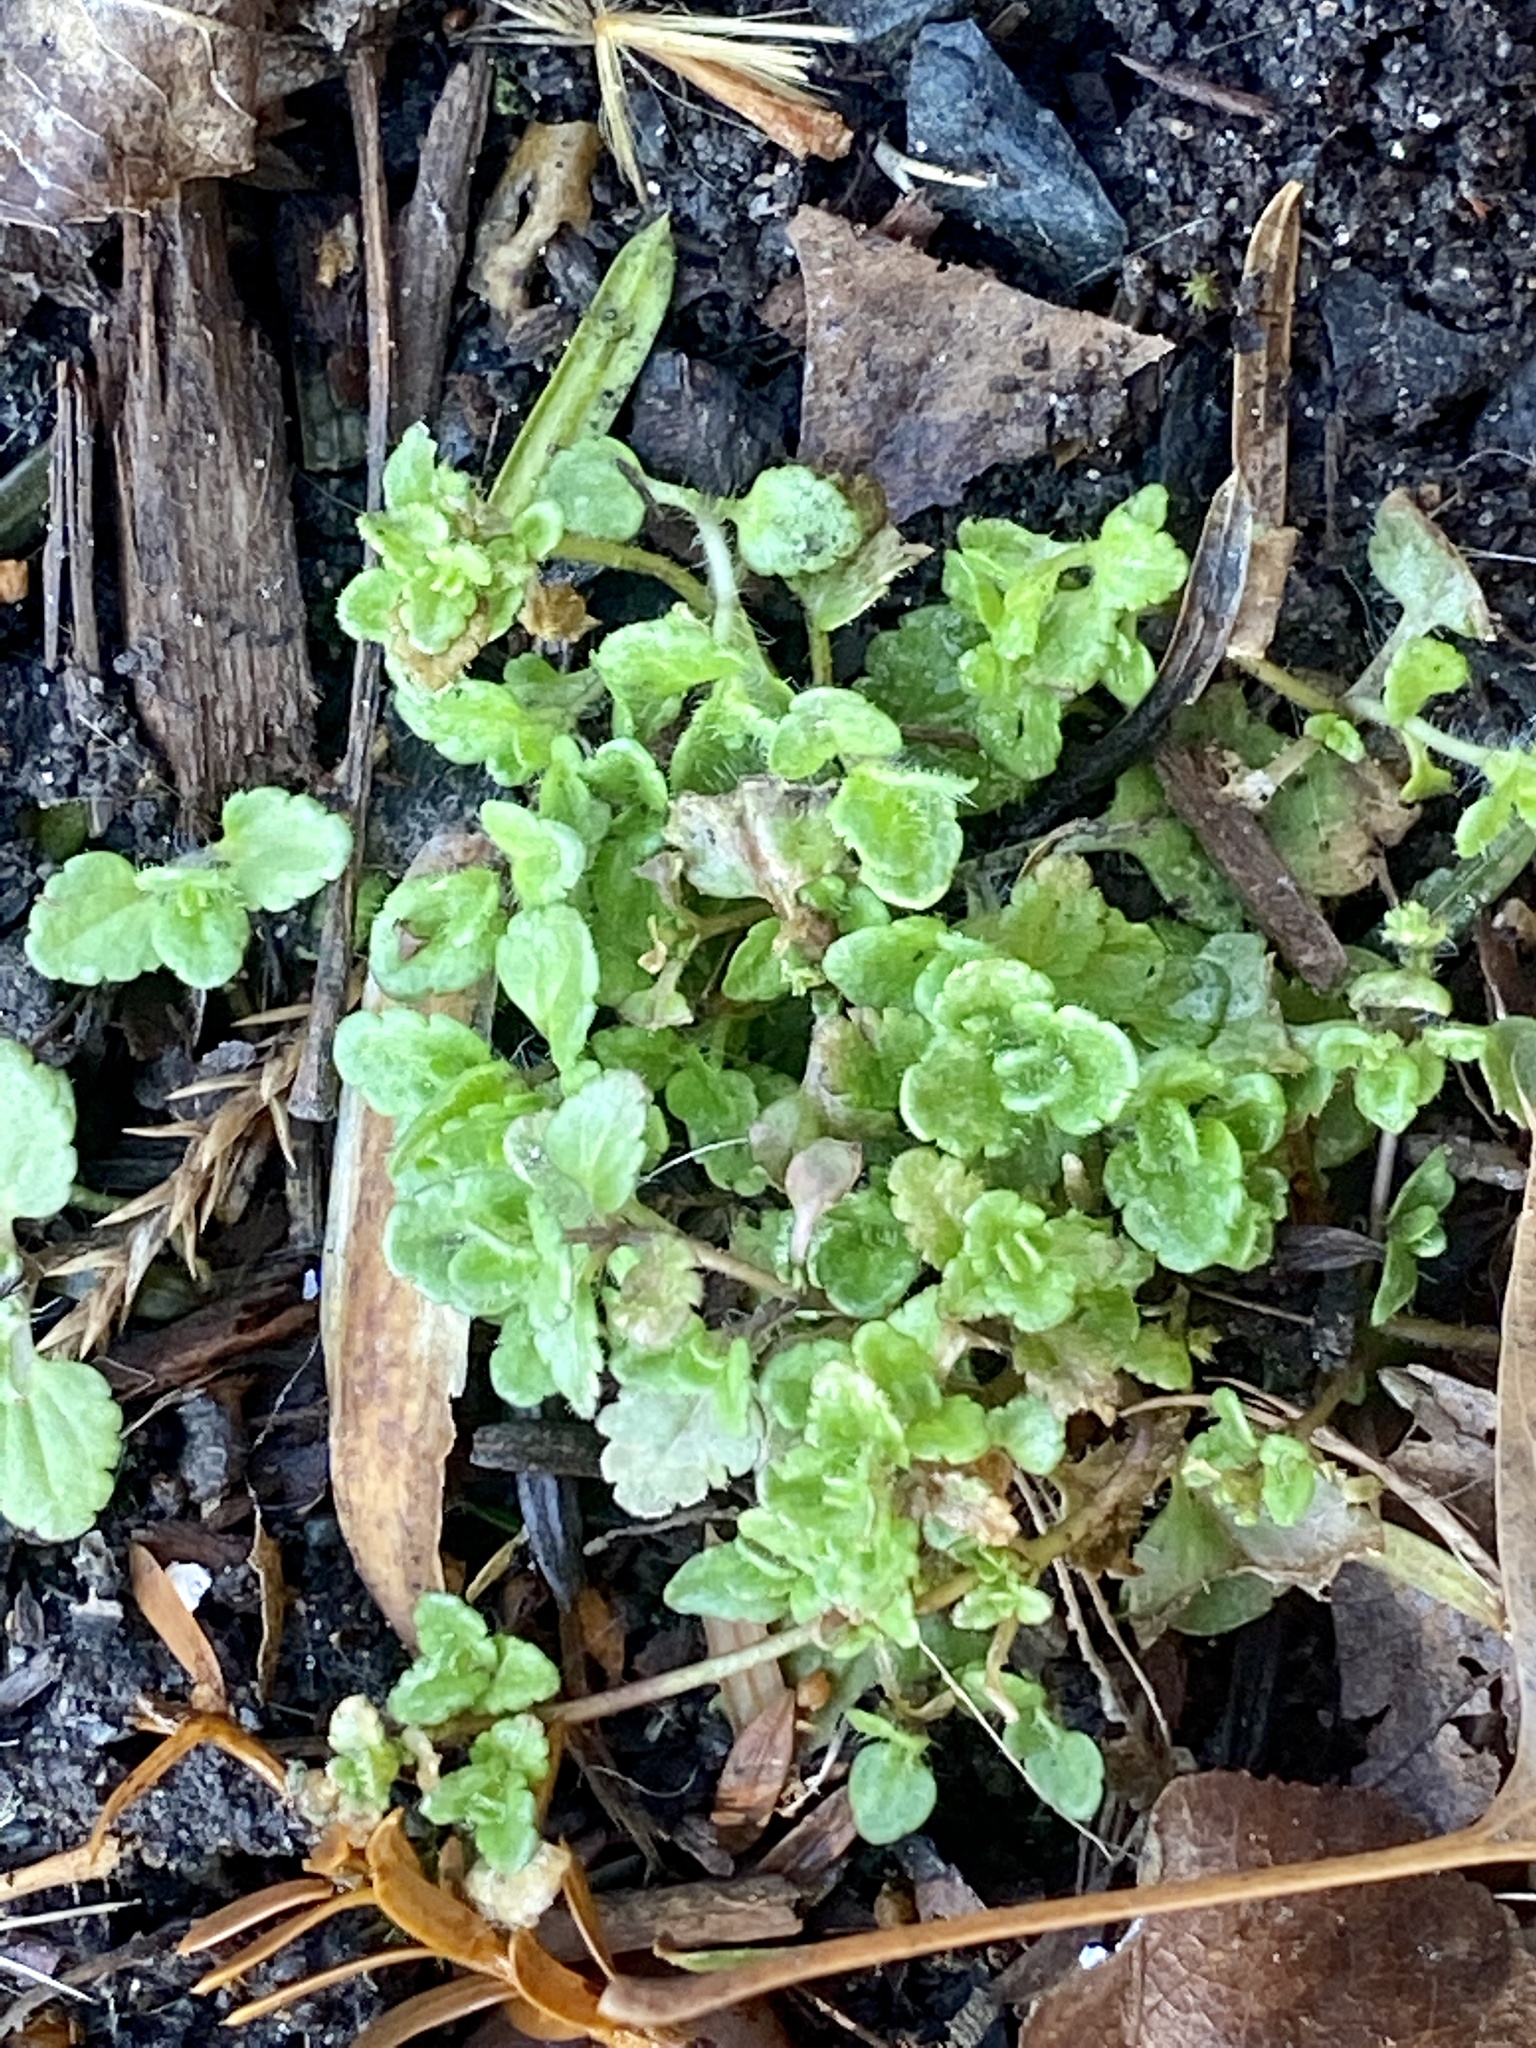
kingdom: Plantae
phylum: Tracheophyta
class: Magnoliopsida
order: Lamiales
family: Plantaginaceae
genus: Veronica
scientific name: Veronica arvensis
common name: Corn speedwell
